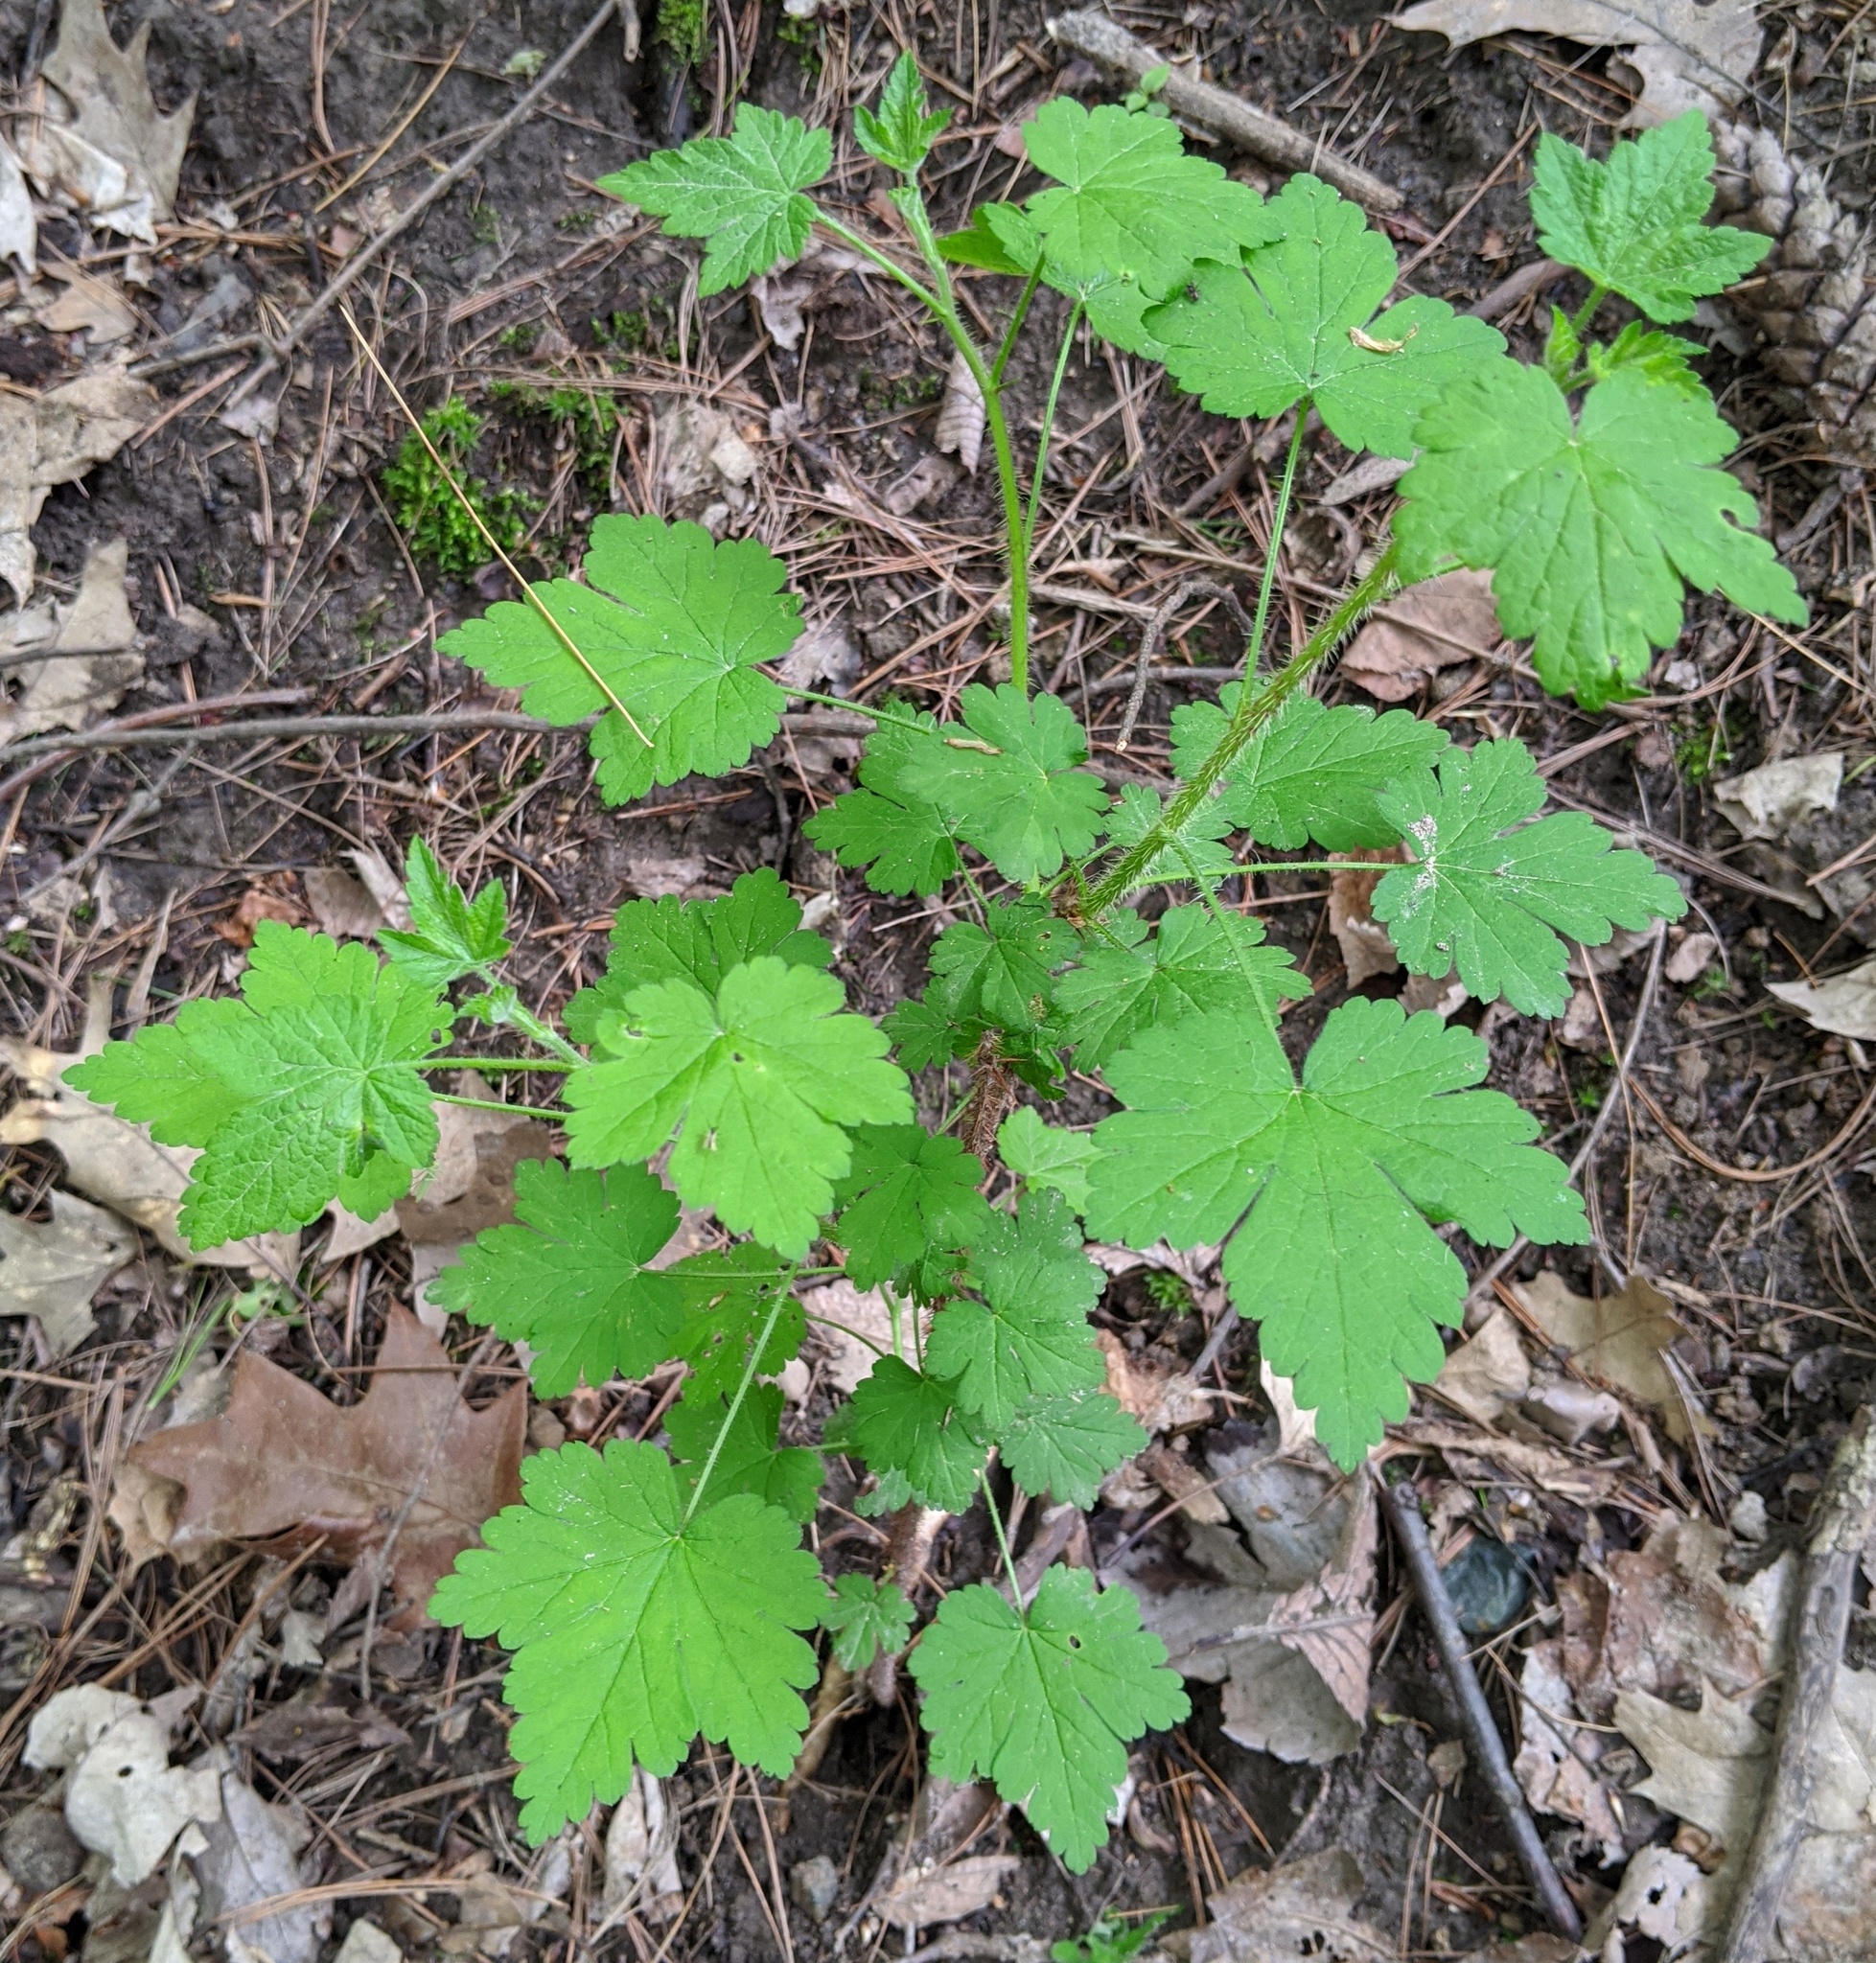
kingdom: Plantae
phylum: Tracheophyta
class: Magnoliopsida
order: Saxifragales
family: Grossulariaceae
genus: Ribes
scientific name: Ribes cynosbati
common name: American gooseberry
